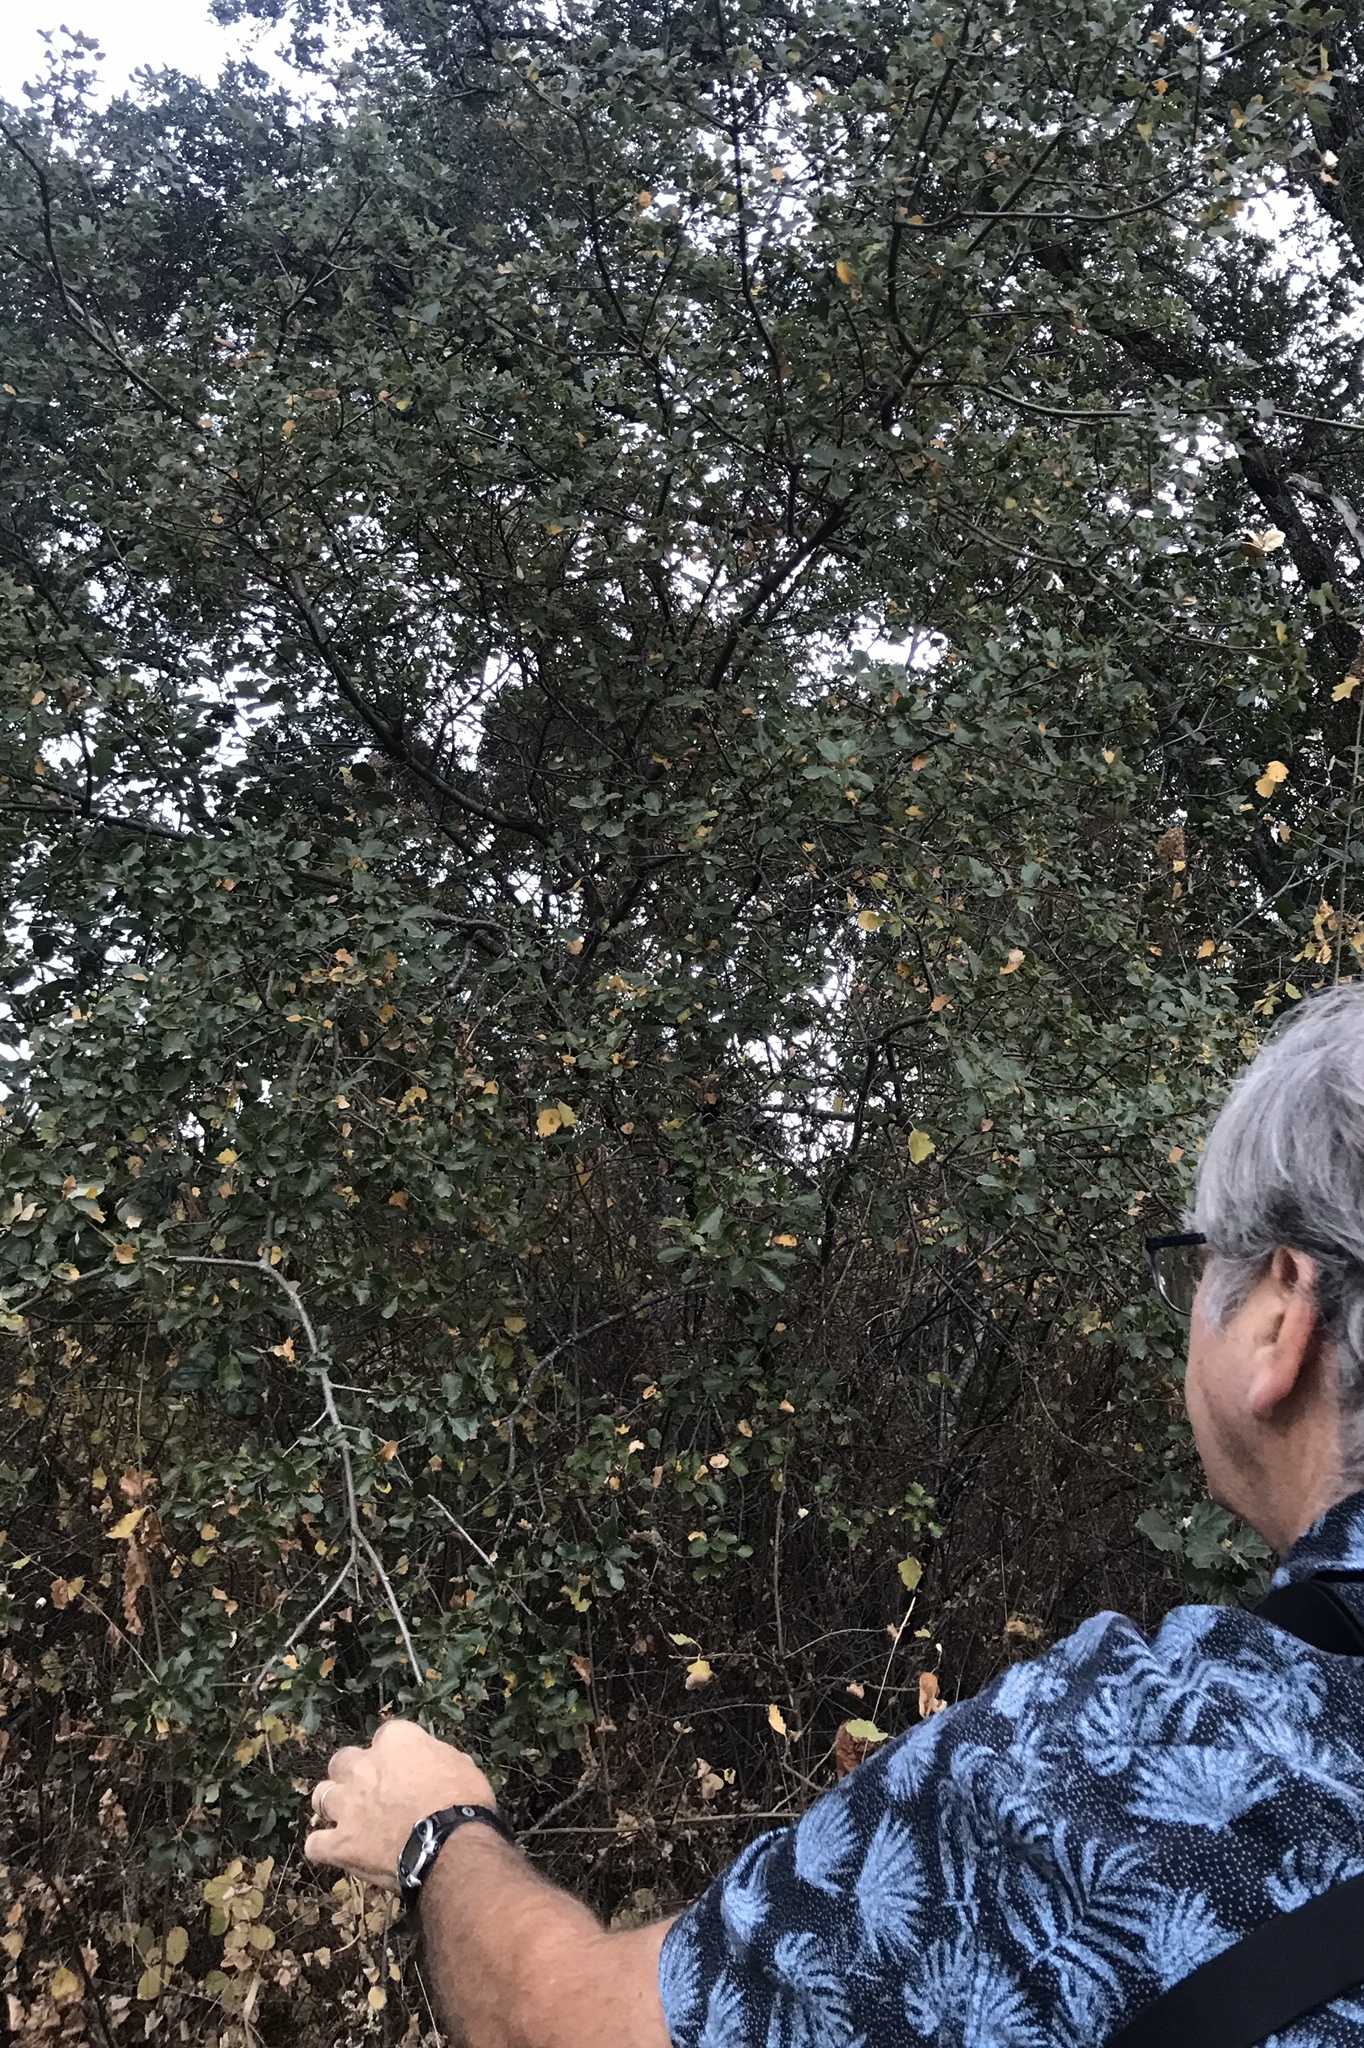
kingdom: Plantae
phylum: Tracheophyta
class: Magnoliopsida
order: Fagales
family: Fagaceae
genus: Quercus
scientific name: Quercus berberidifolia
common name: California scrub oak
